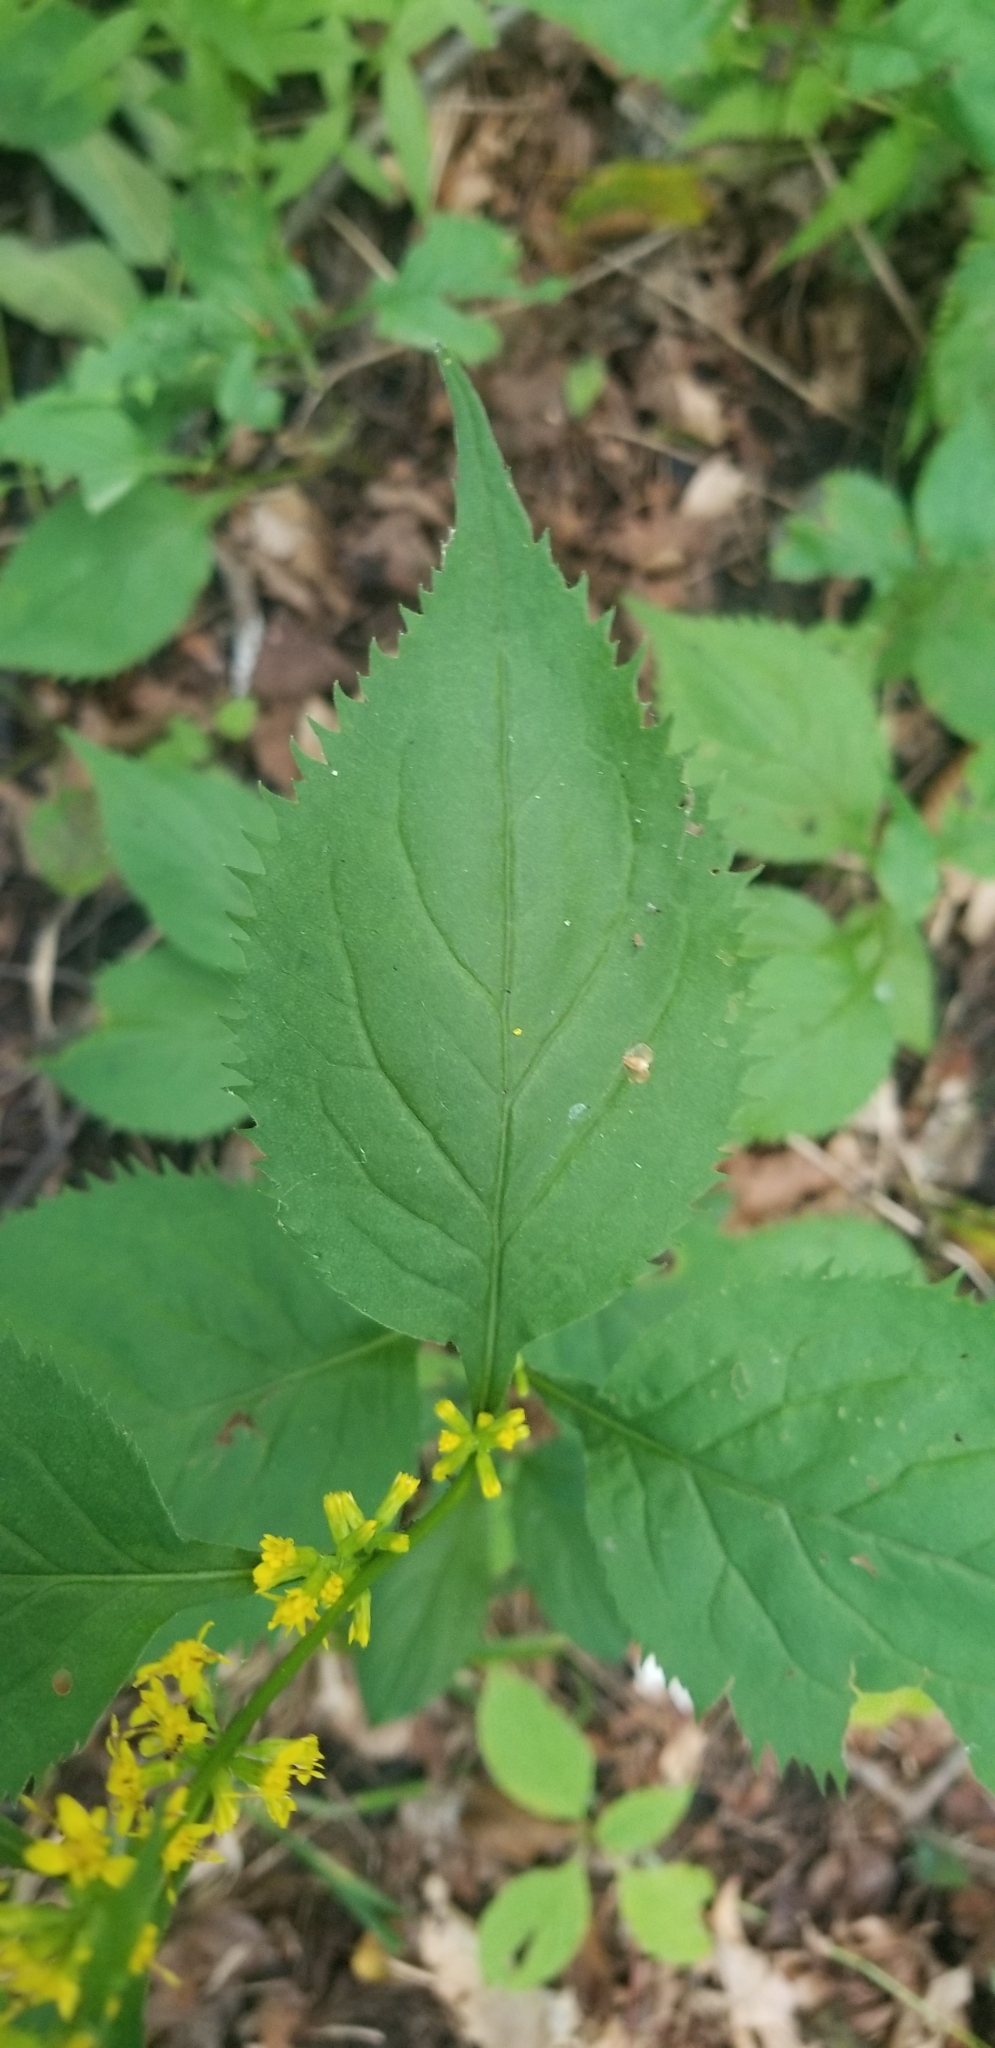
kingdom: Plantae
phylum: Tracheophyta
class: Magnoliopsida
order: Asterales
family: Asteraceae
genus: Solidago
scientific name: Solidago flexicaulis
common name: Zig-zag goldenrod
